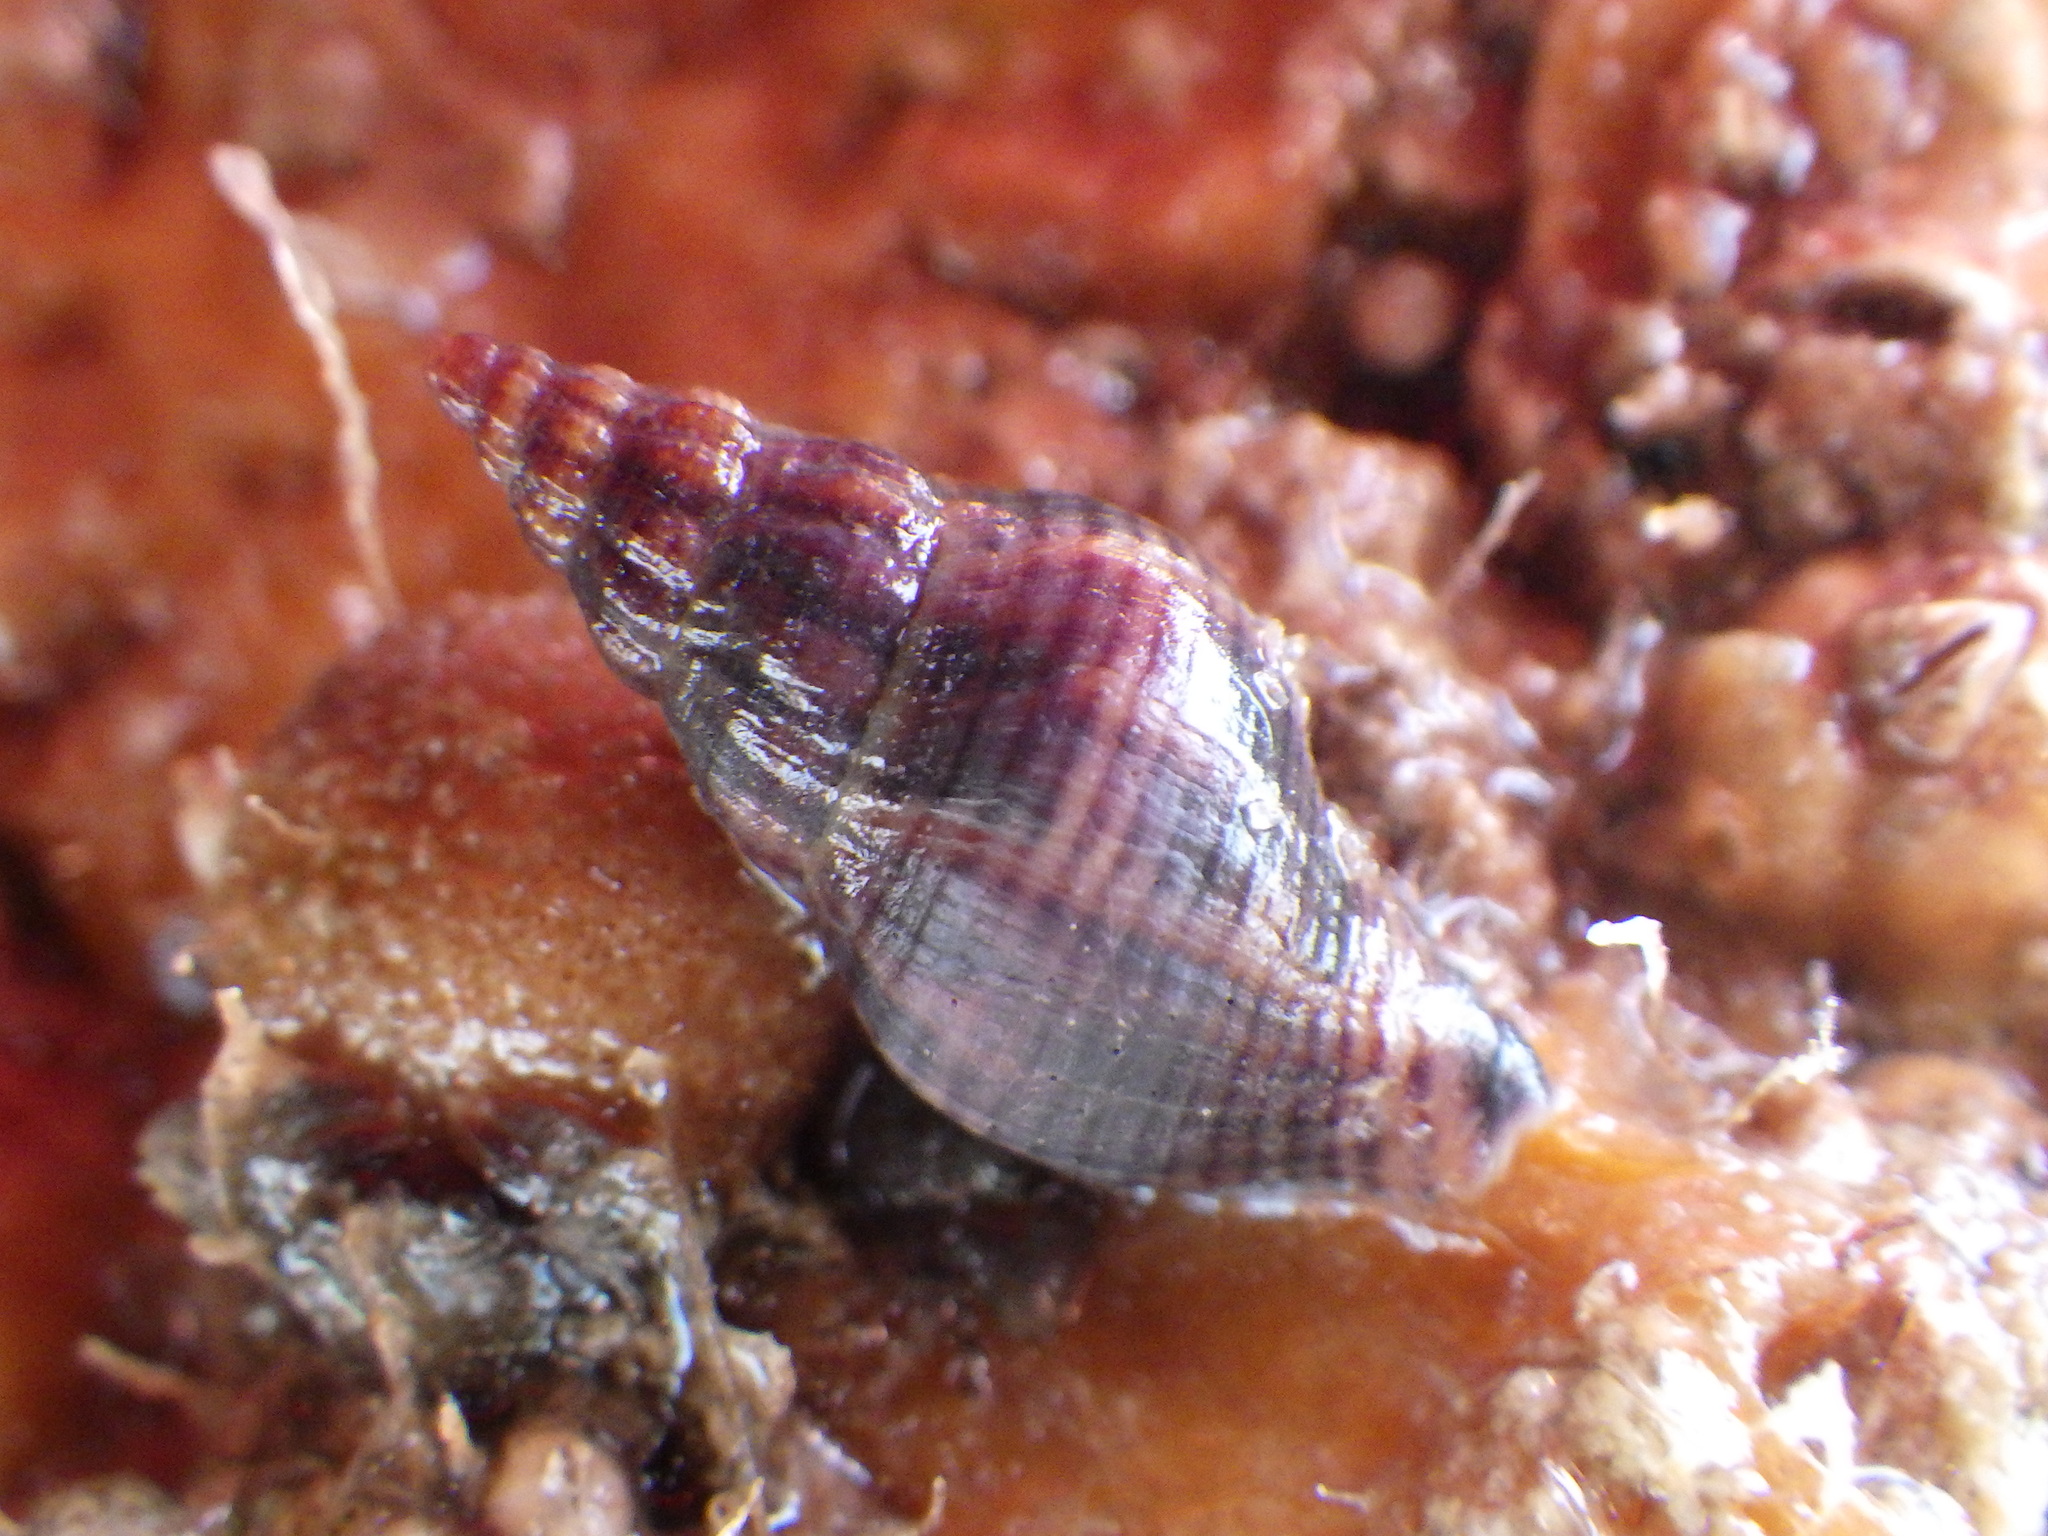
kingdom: Animalia
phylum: Mollusca
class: Gastropoda
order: Neogastropoda
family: Tudiclidae
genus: Buccinulum
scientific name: Buccinulum vittatum
